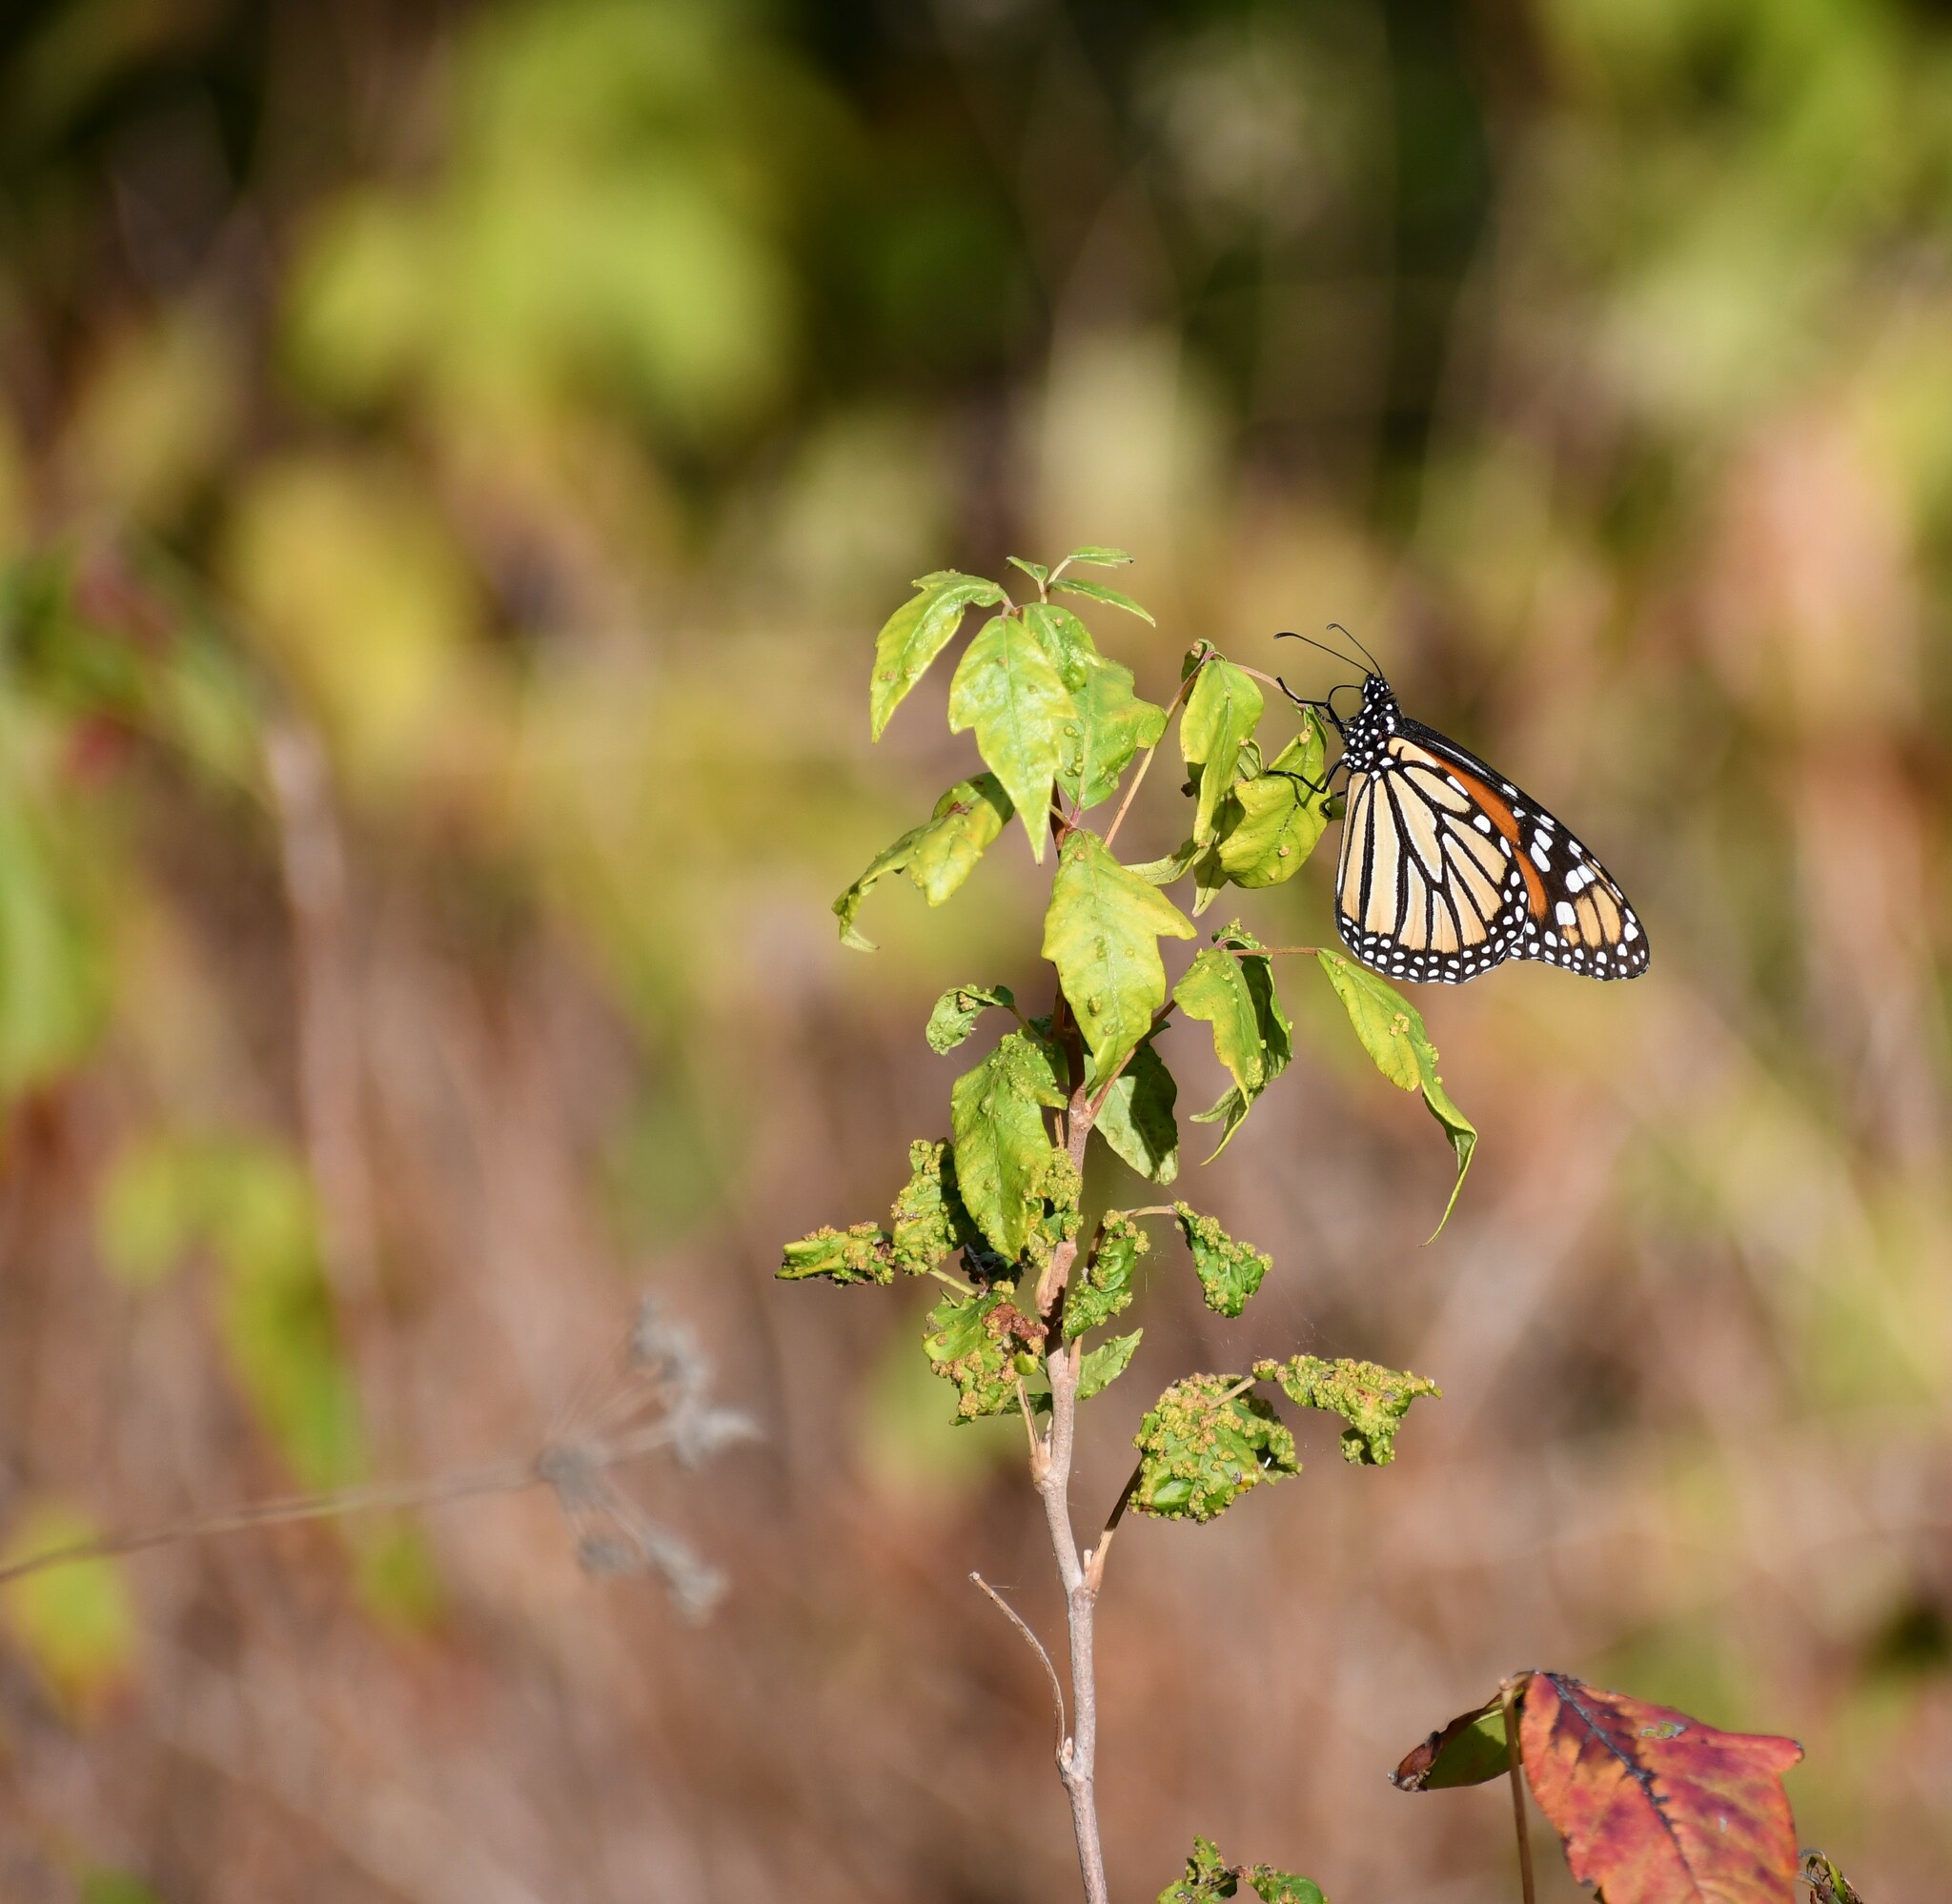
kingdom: Animalia
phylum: Arthropoda
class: Insecta
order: Lepidoptera
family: Nymphalidae
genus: Danaus
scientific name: Danaus plexippus
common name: Monarch
